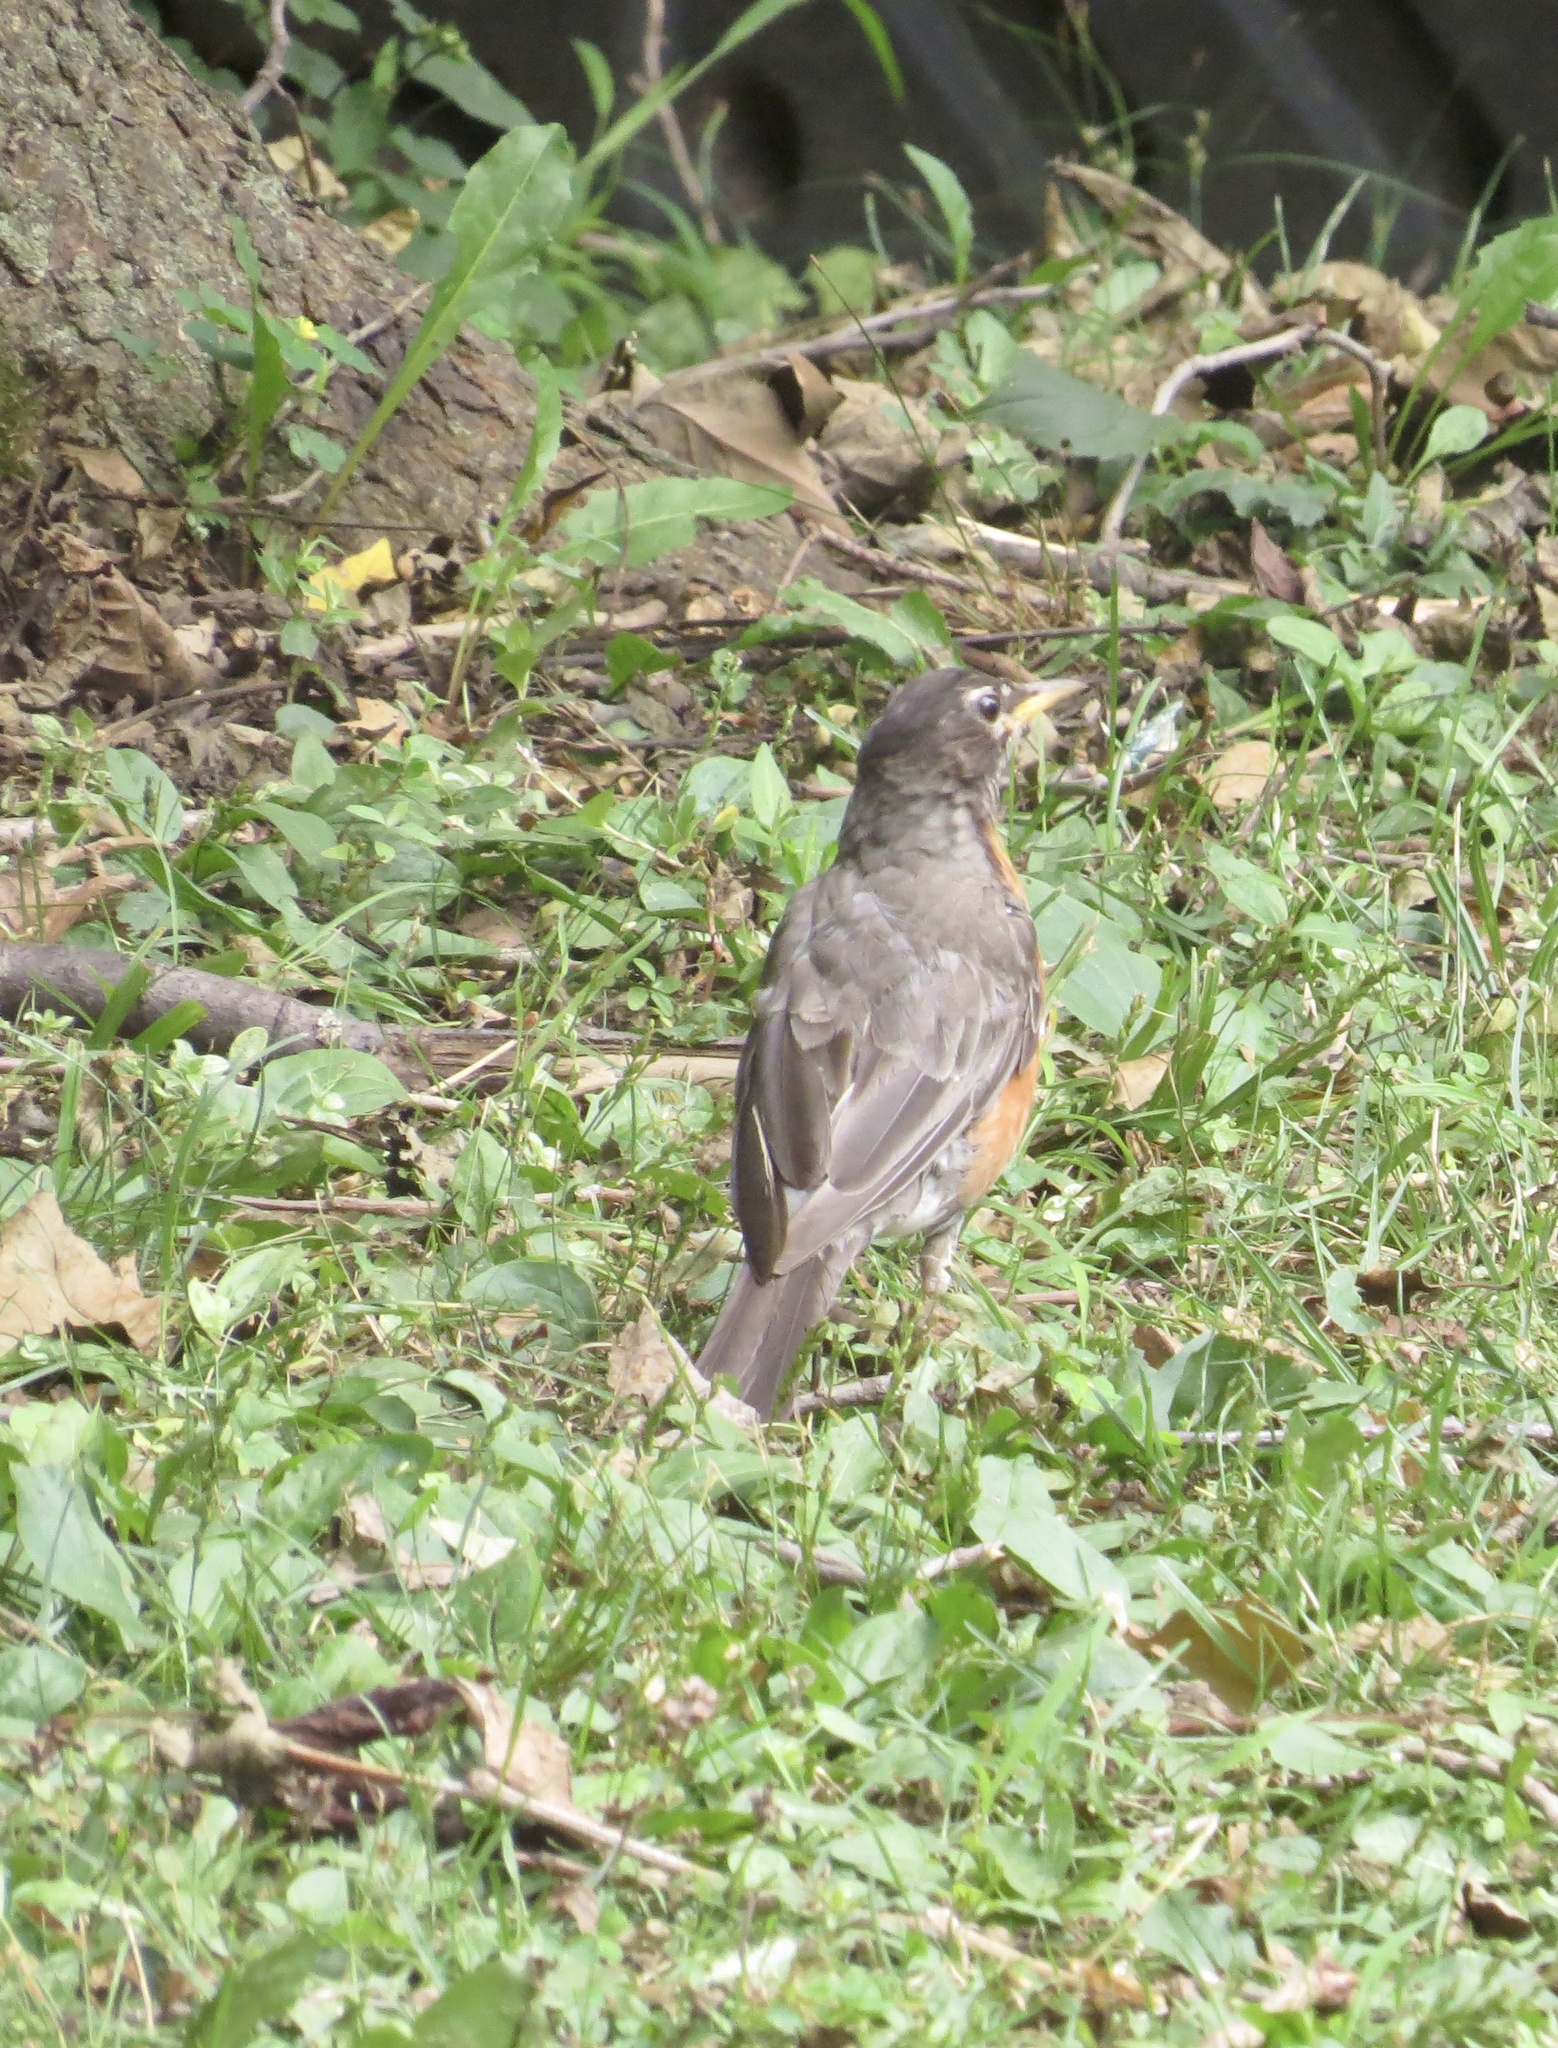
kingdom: Animalia
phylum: Chordata
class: Aves
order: Passeriformes
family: Turdidae
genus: Turdus
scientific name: Turdus migratorius
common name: American robin
